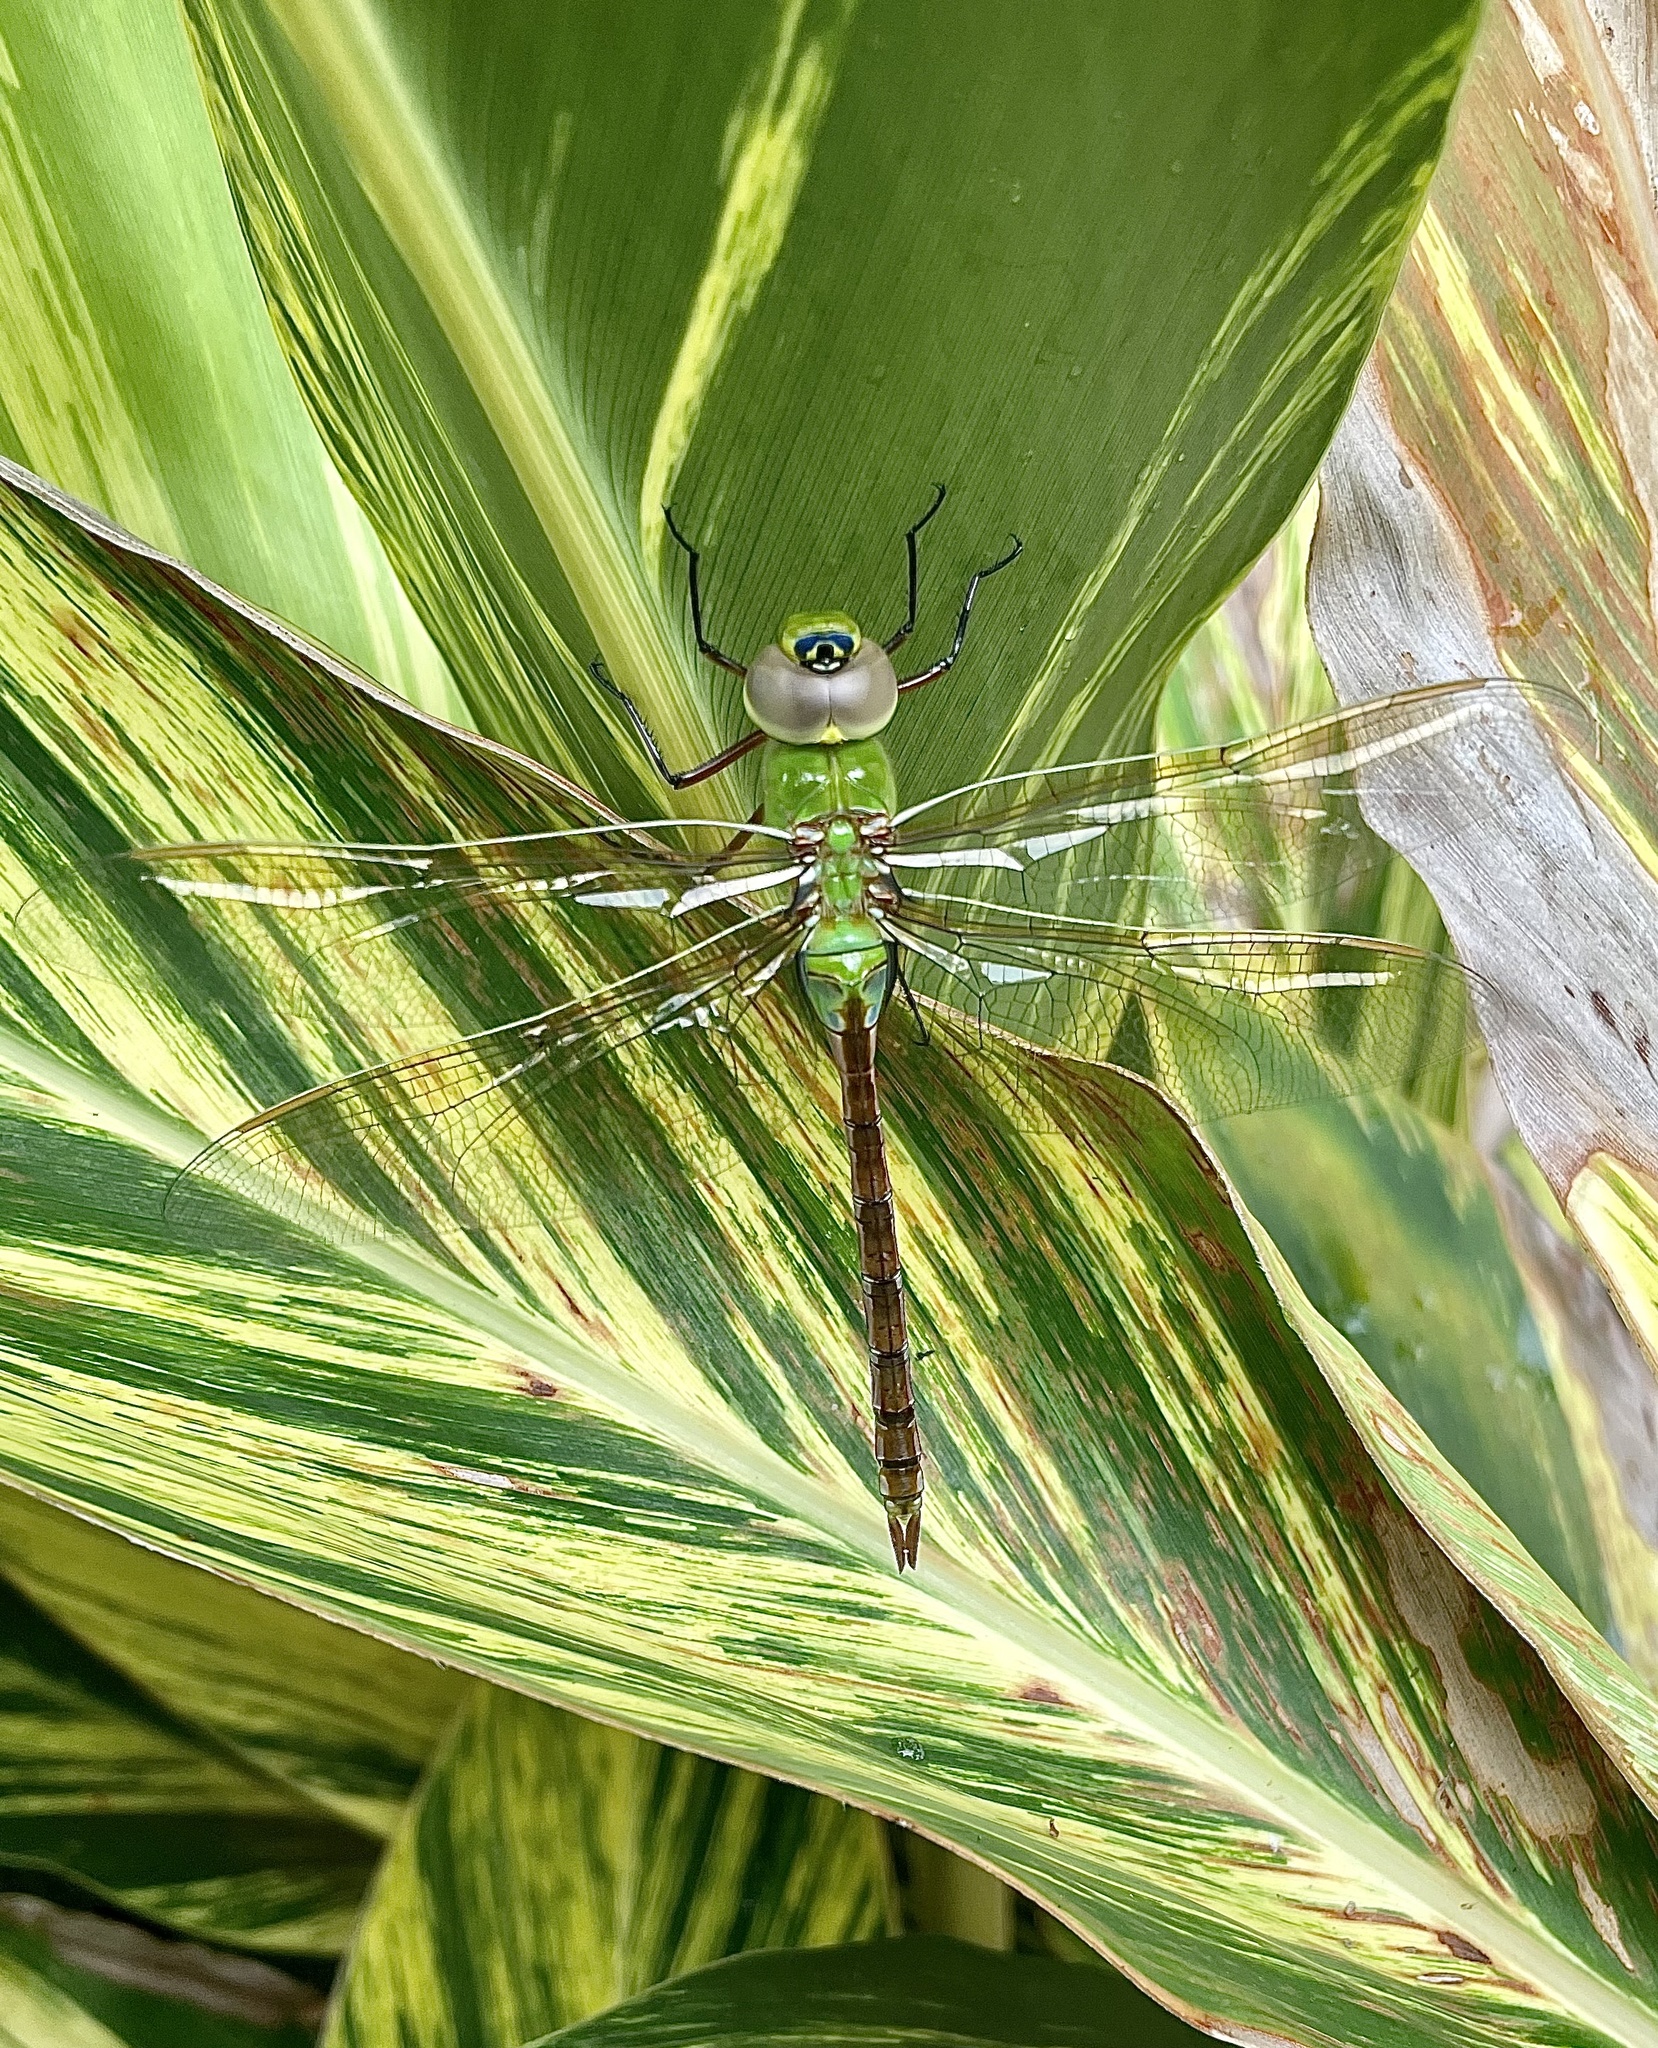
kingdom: Animalia
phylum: Arthropoda
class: Insecta
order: Odonata
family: Aeshnidae
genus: Anax
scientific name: Anax junius
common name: Common green darner
